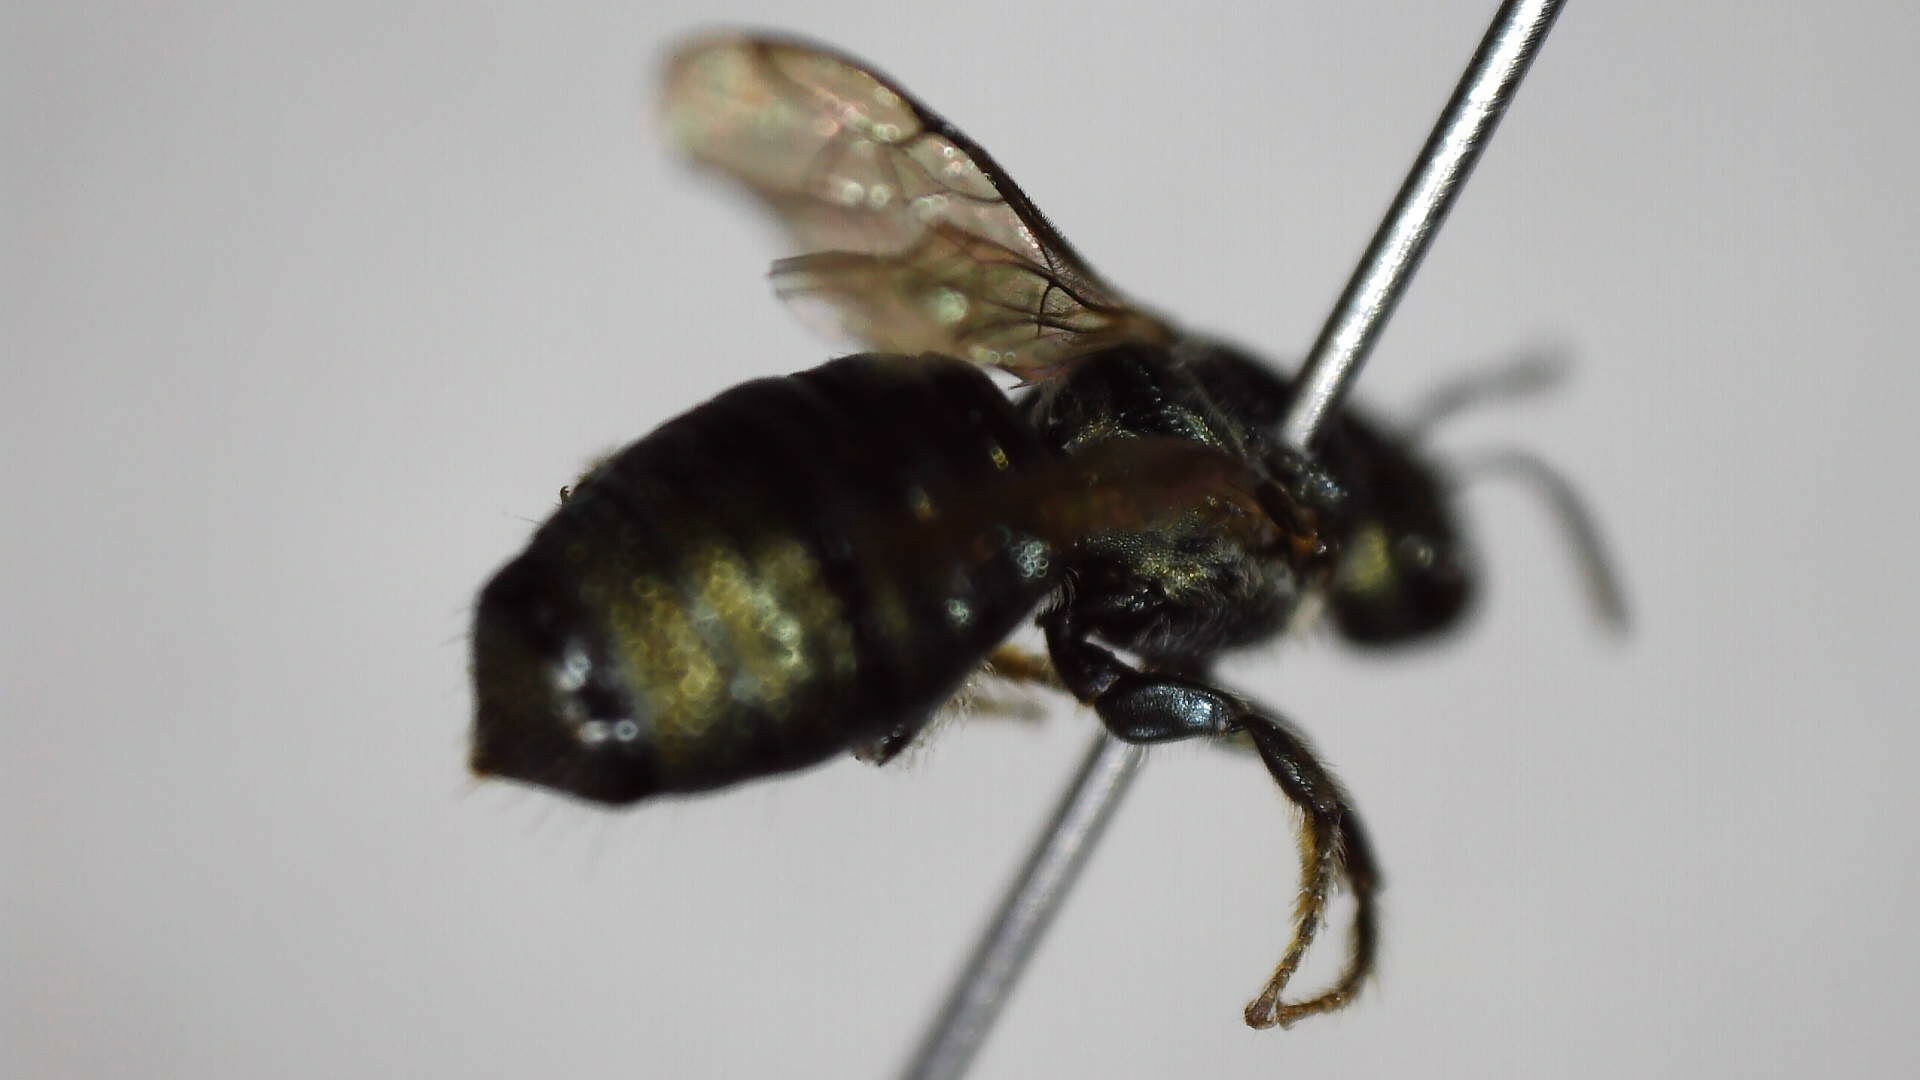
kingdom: Animalia
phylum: Arthropoda
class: Insecta
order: Hymenoptera
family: Apidae
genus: Zadontomerus
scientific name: Zadontomerus
